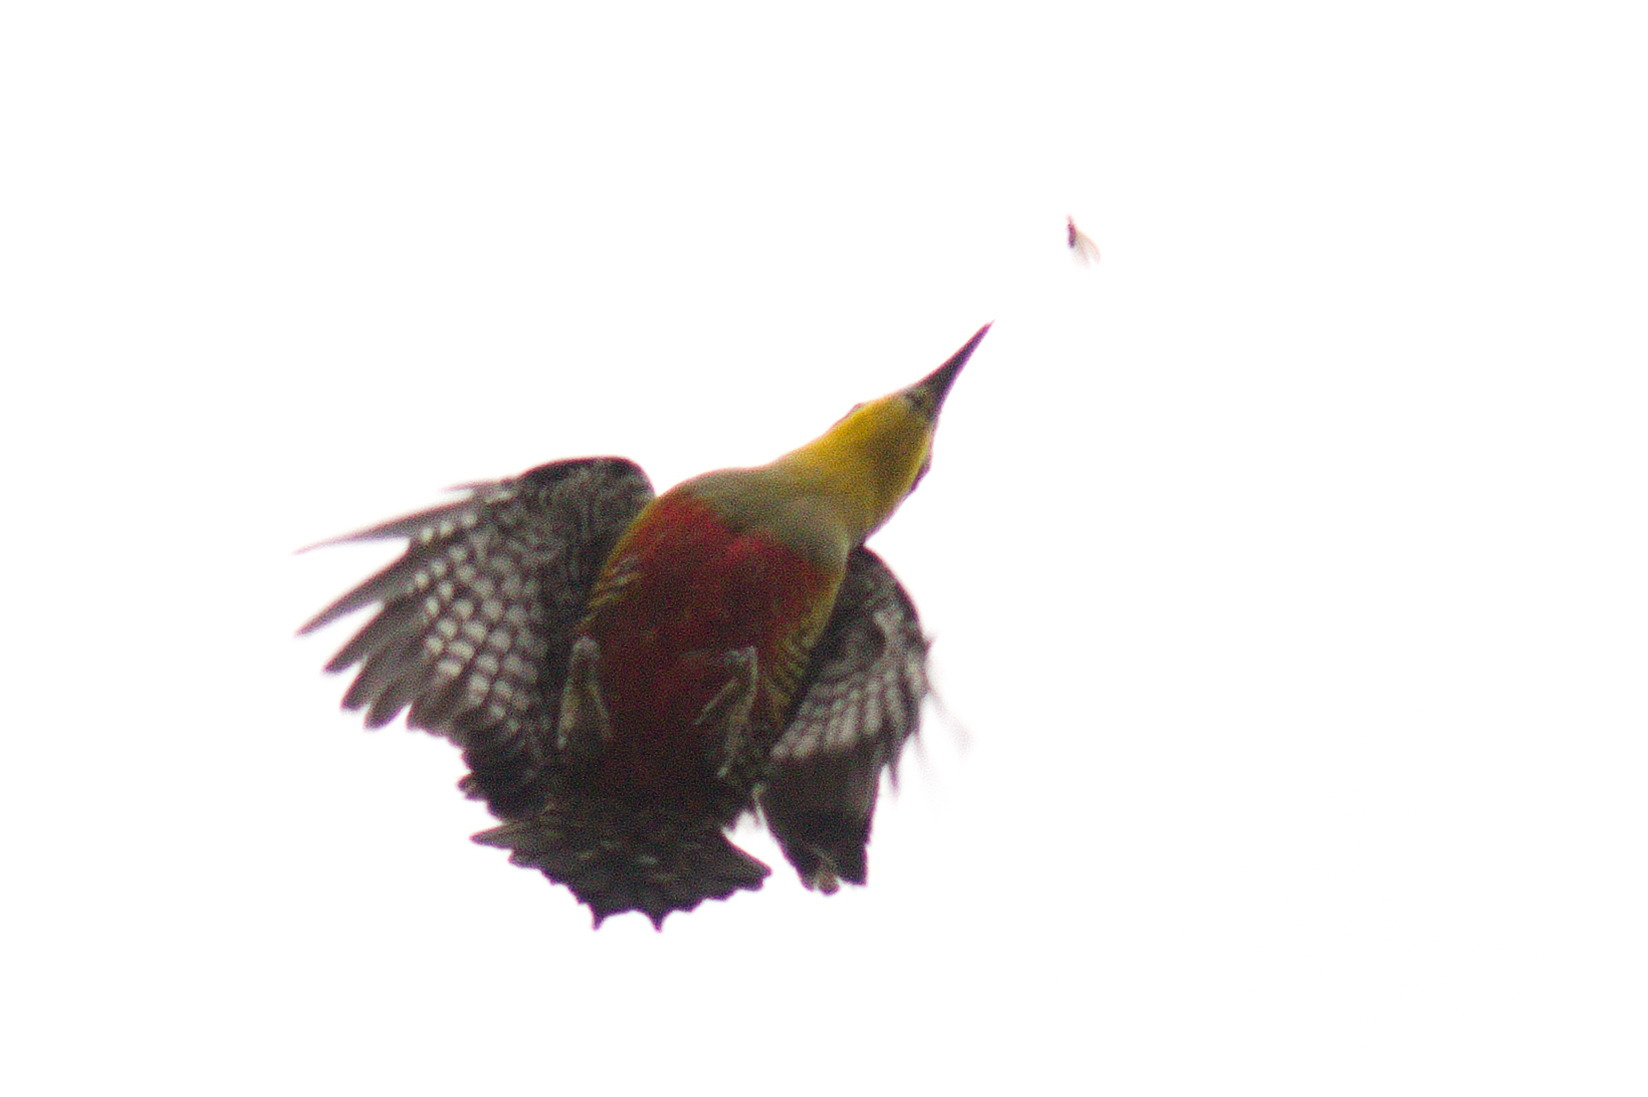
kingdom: Animalia
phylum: Chordata
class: Aves
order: Piciformes
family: Picidae
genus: Melanerpes
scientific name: Melanerpes flavifrons
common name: Yellow-fronted woodpecker
